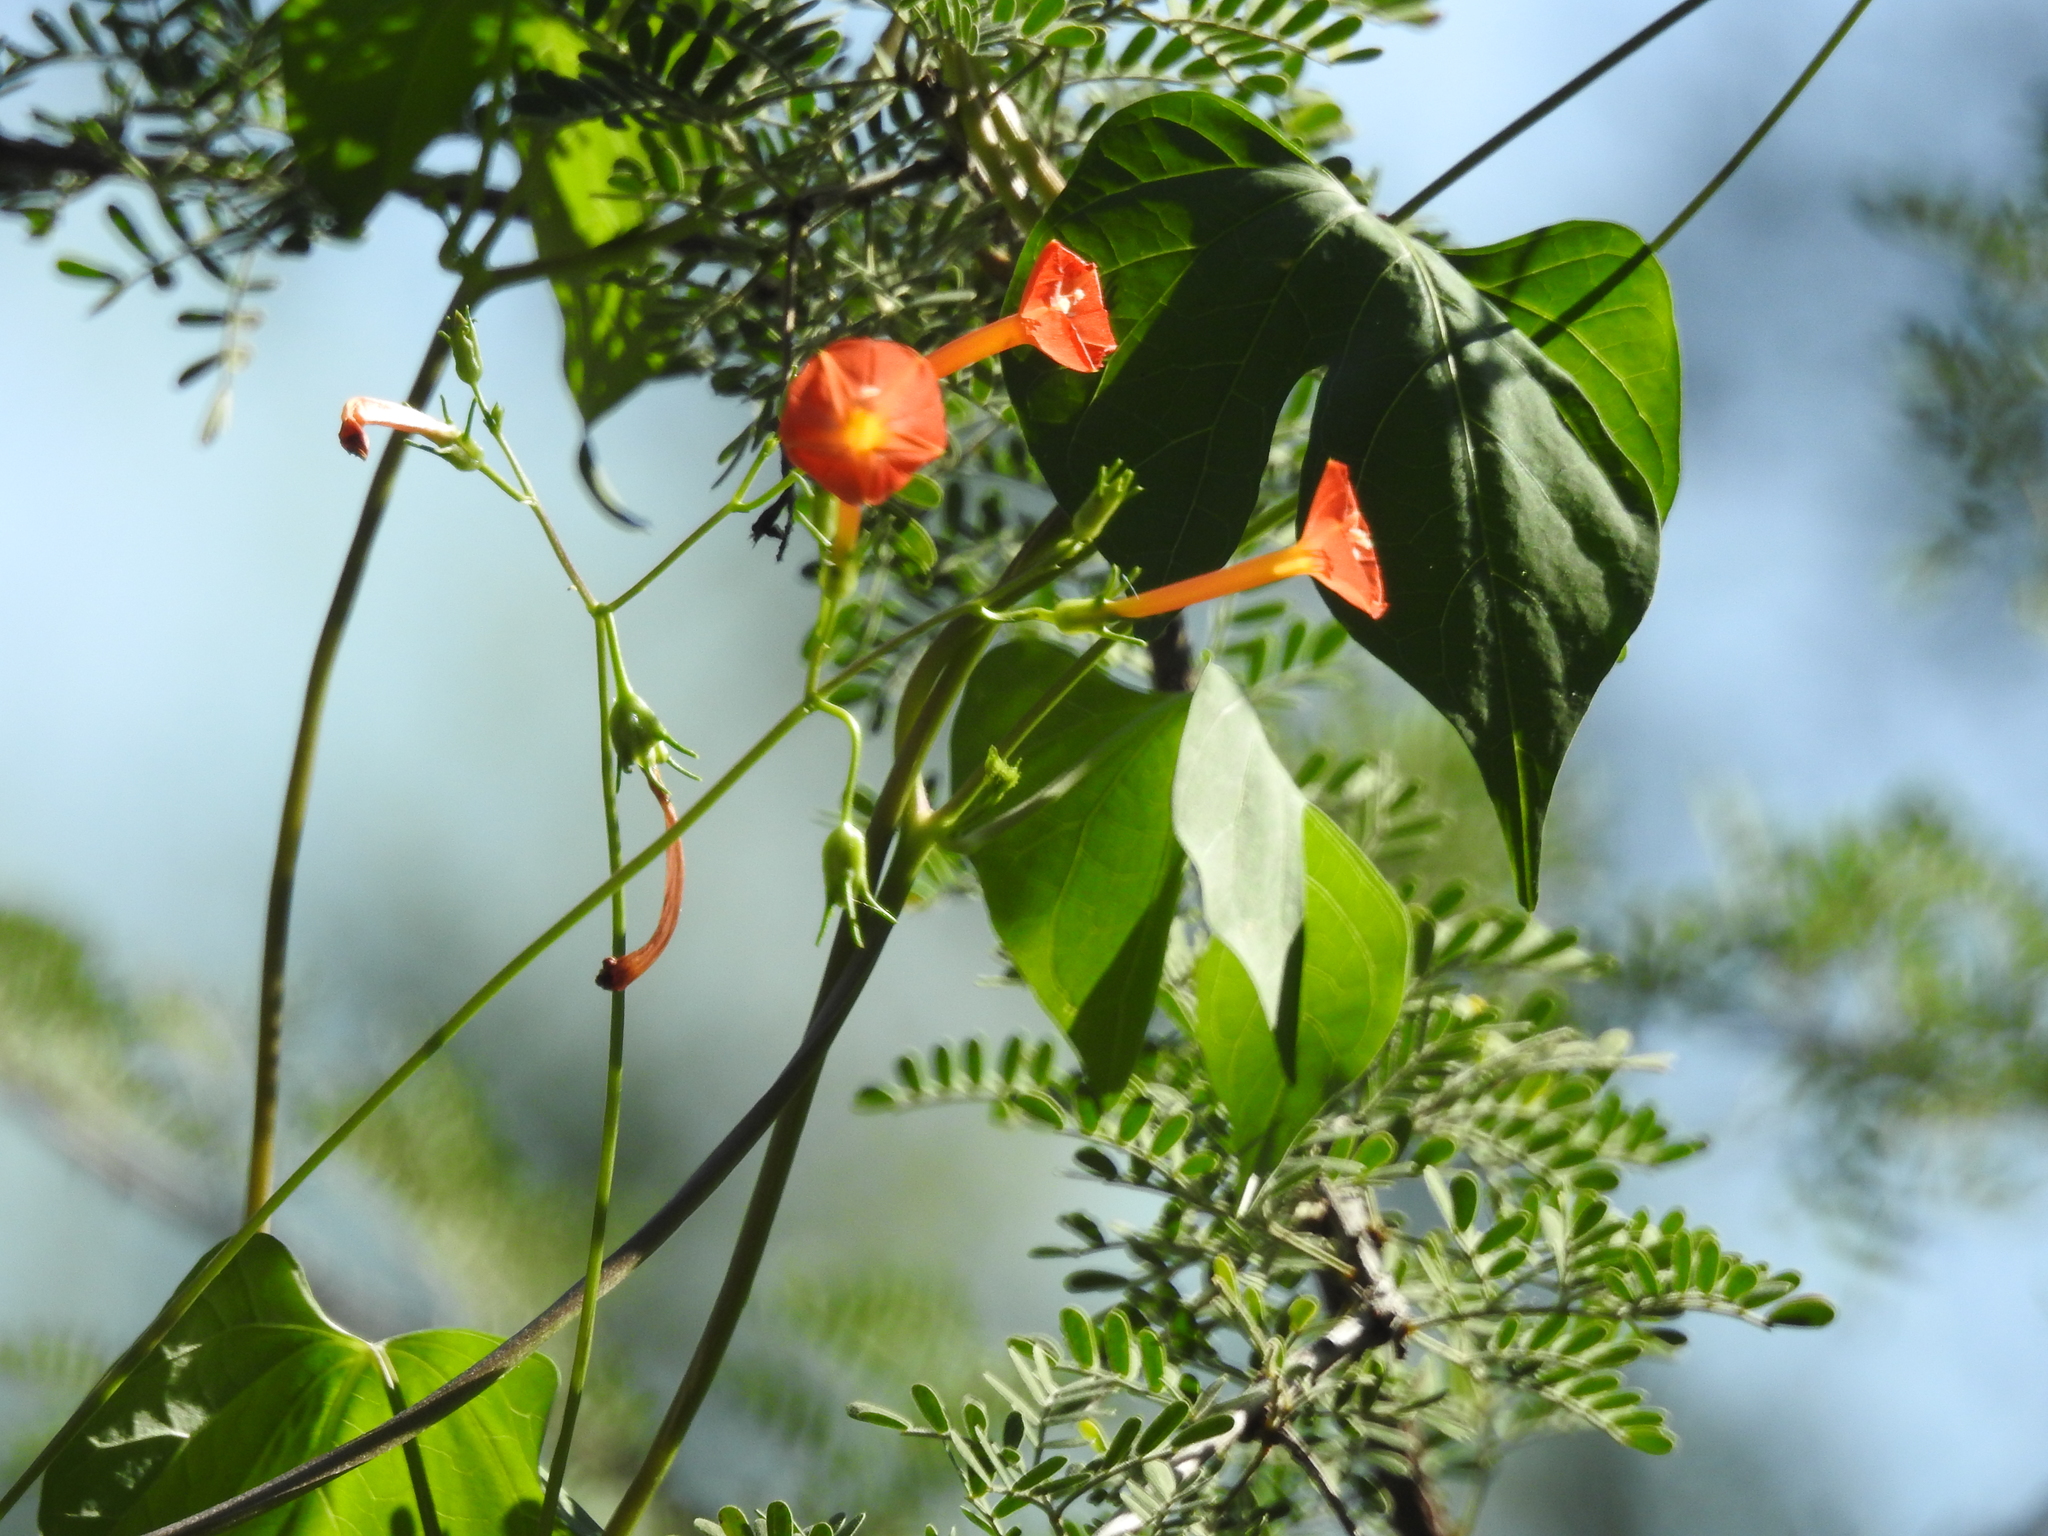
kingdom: Plantae
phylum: Tracheophyta
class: Magnoliopsida
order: Solanales
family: Convolvulaceae
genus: Ipomoea
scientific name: Ipomoea cristulata
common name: Trans-pecos morning-glory
